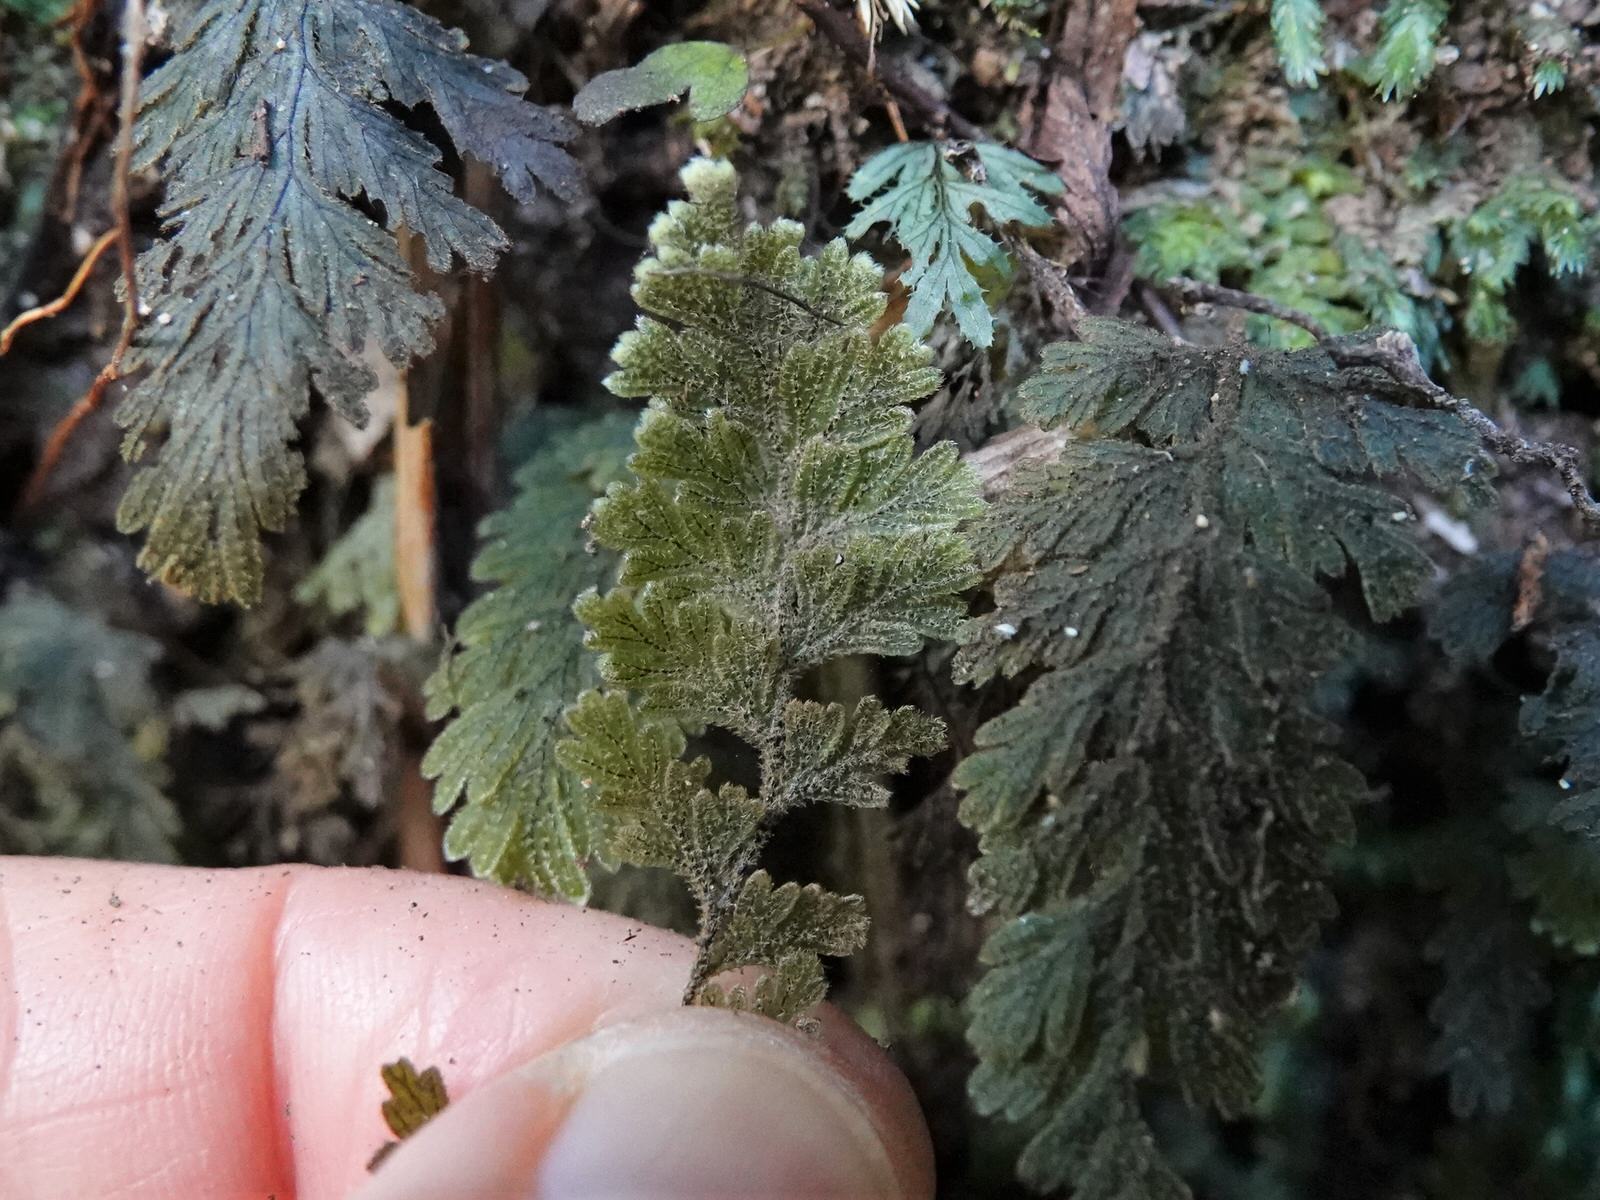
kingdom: Plantae
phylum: Tracheophyta
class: Polypodiopsida
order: Hymenophyllales
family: Hymenophyllaceae
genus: Hymenophyllum
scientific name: Hymenophyllum frankliniae
